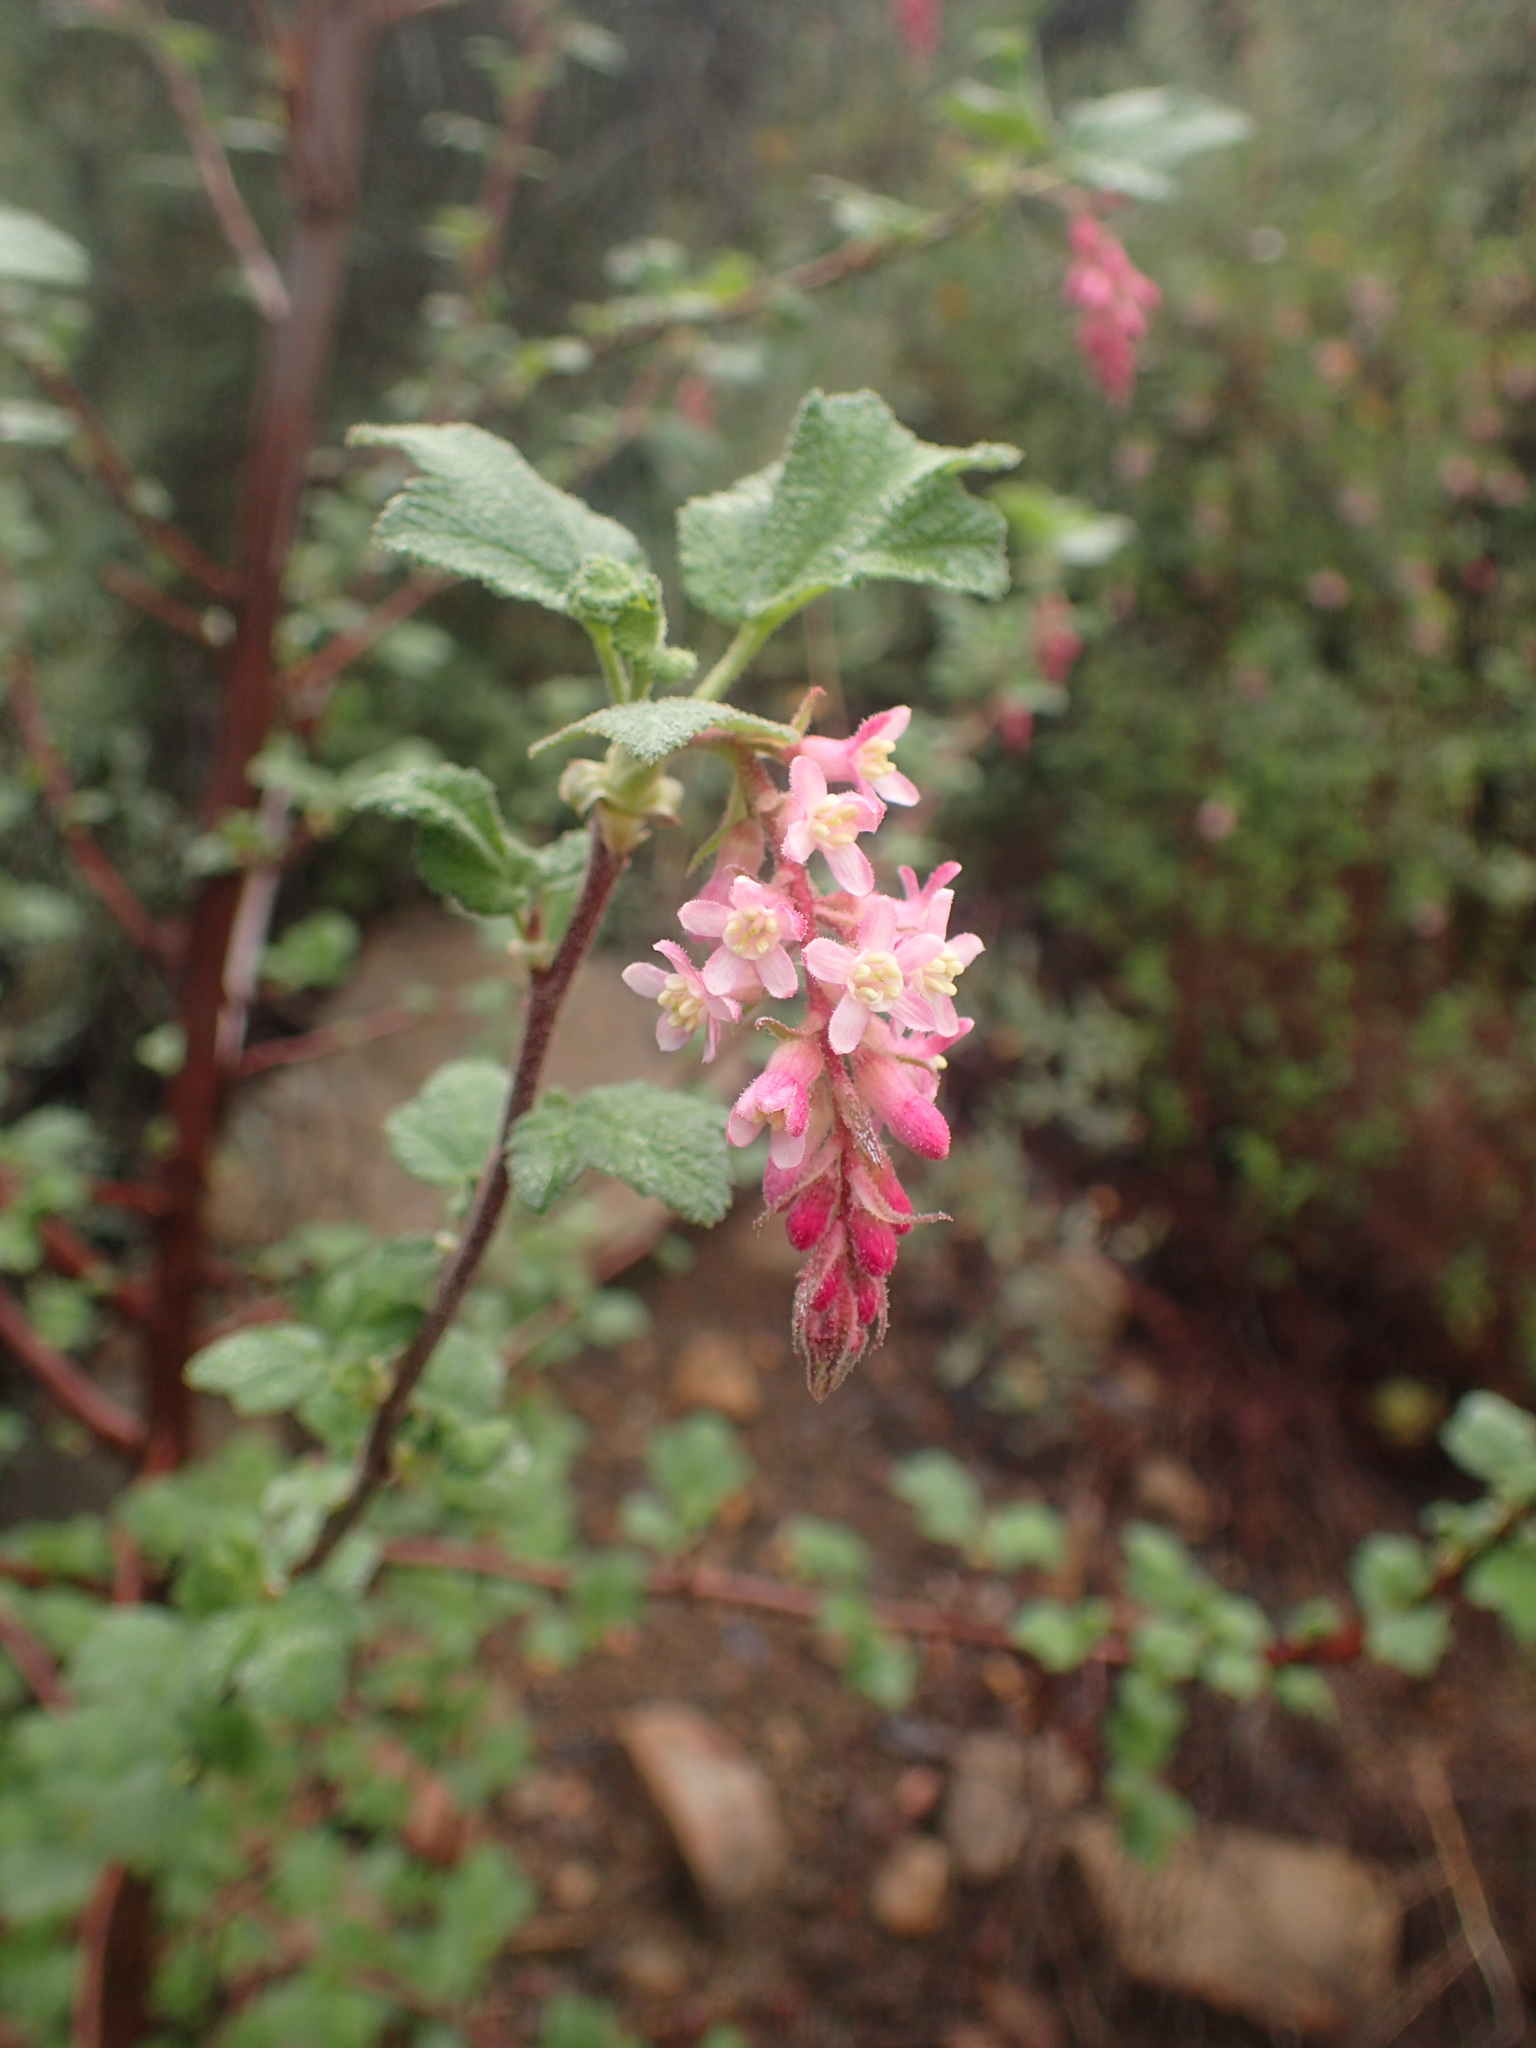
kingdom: Plantae
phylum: Tracheophyta
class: Magnoliopsida
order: Saxifragales
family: Grossulariaceae
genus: Ribes
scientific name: Ribes malvaceum
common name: Chaparral currant
